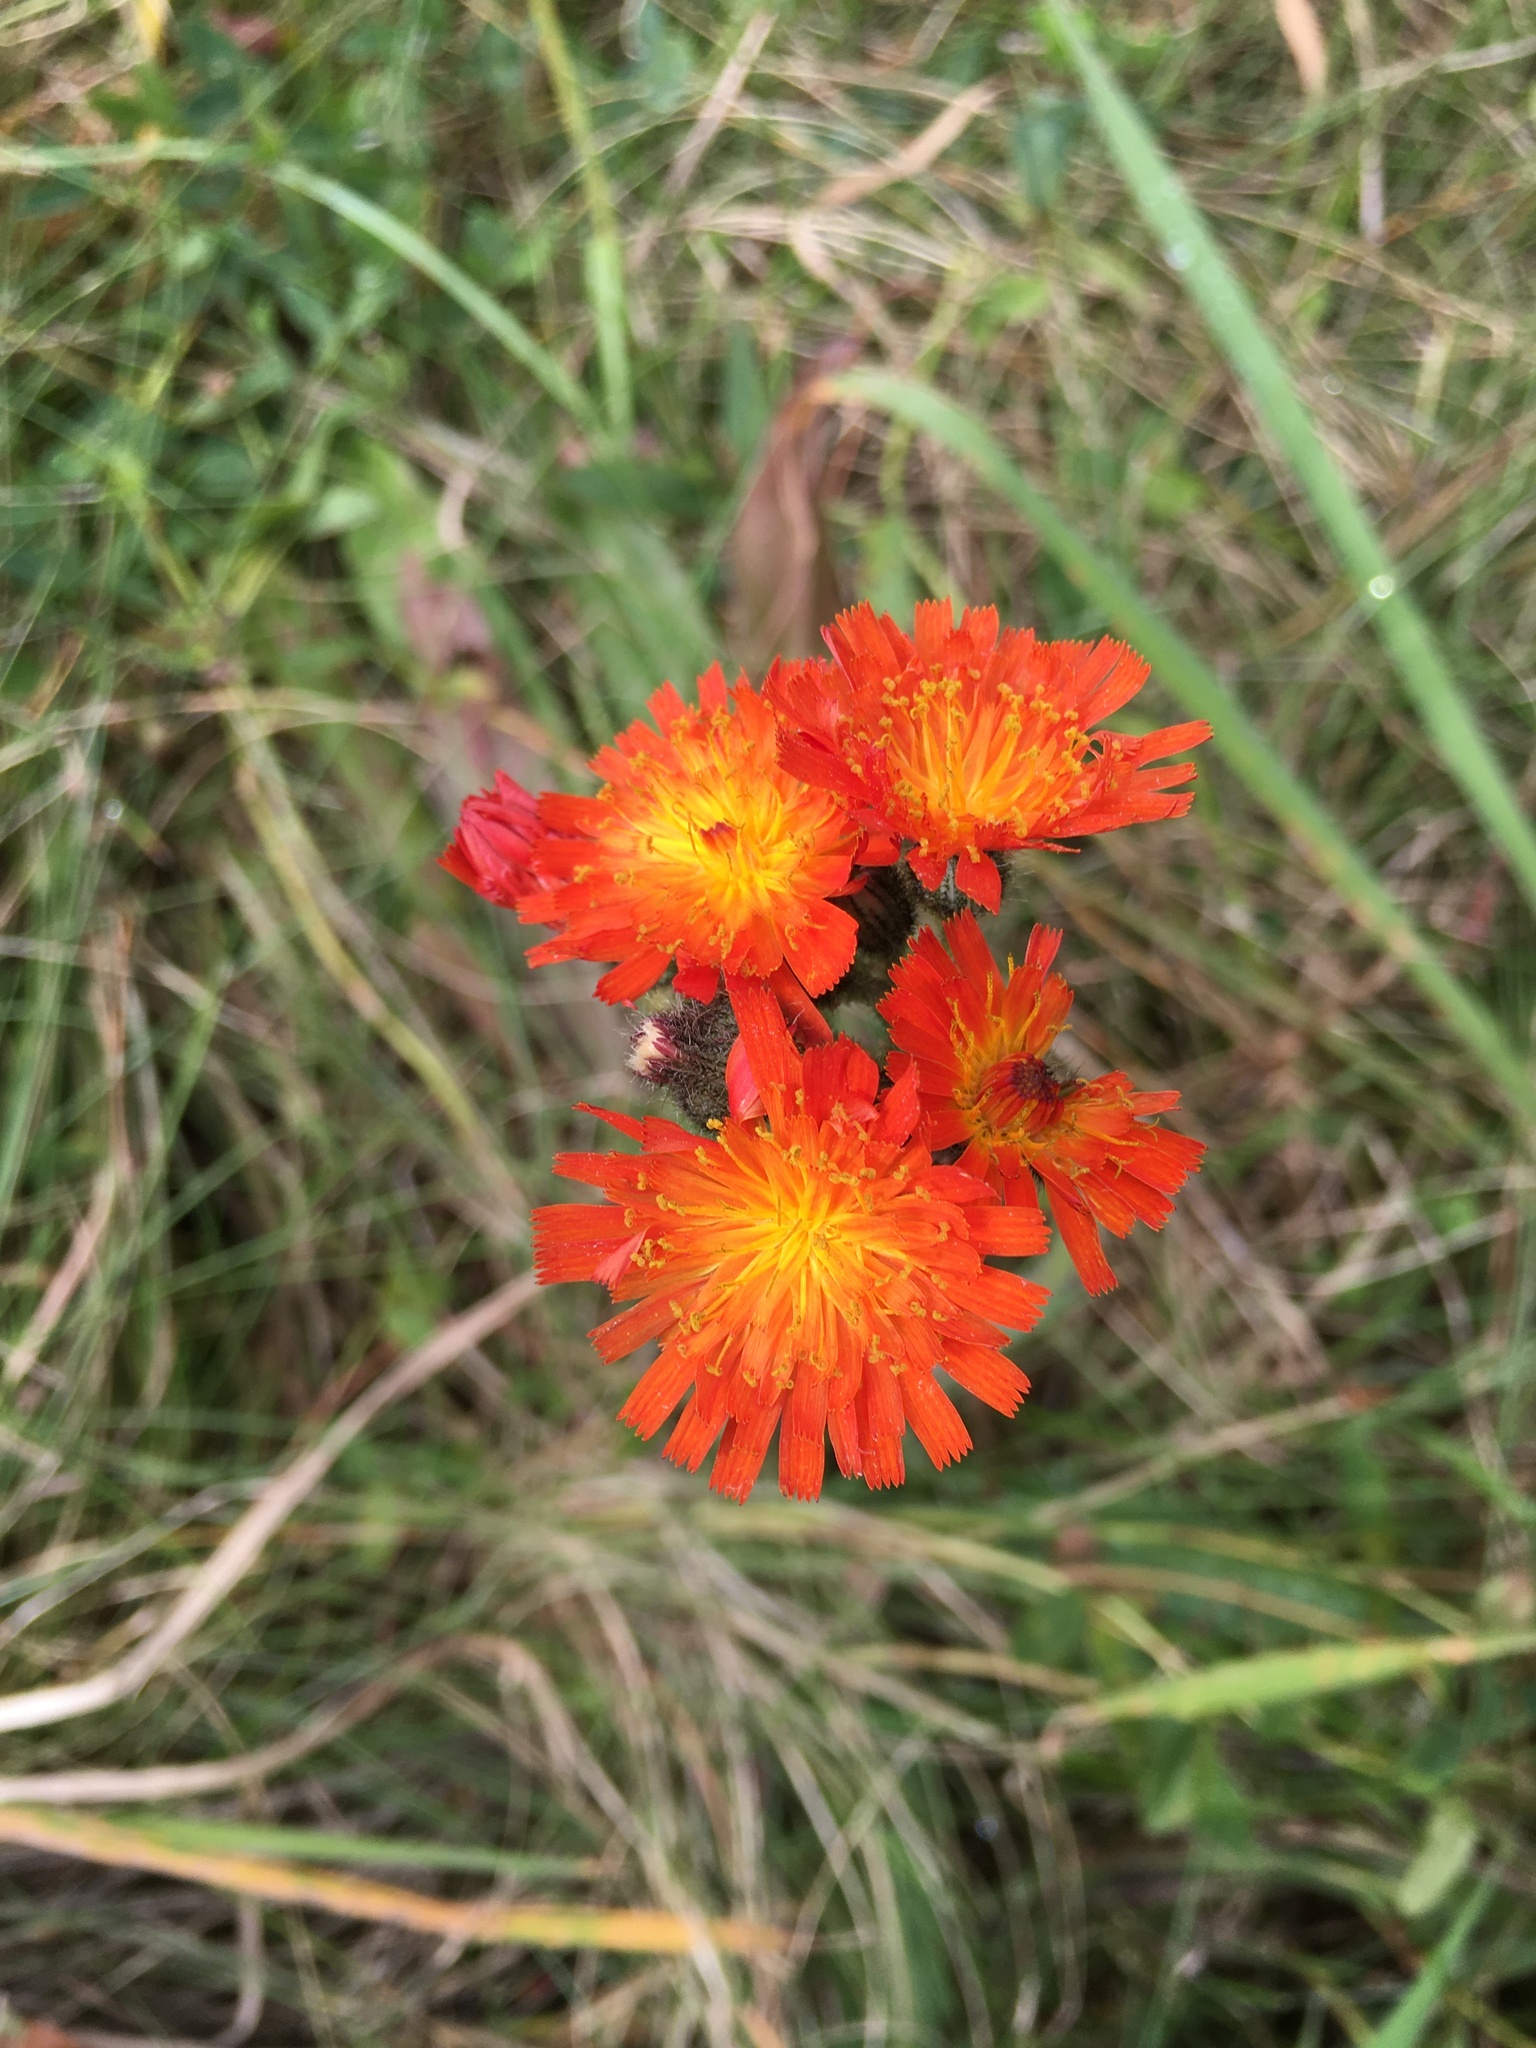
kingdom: Plantae
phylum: Tracheophyta
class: Magnoliopsida
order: Asterales
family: Asteraceae
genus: Pilosella
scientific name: Pilosella aurantiaca
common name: Fox-and-cubs
